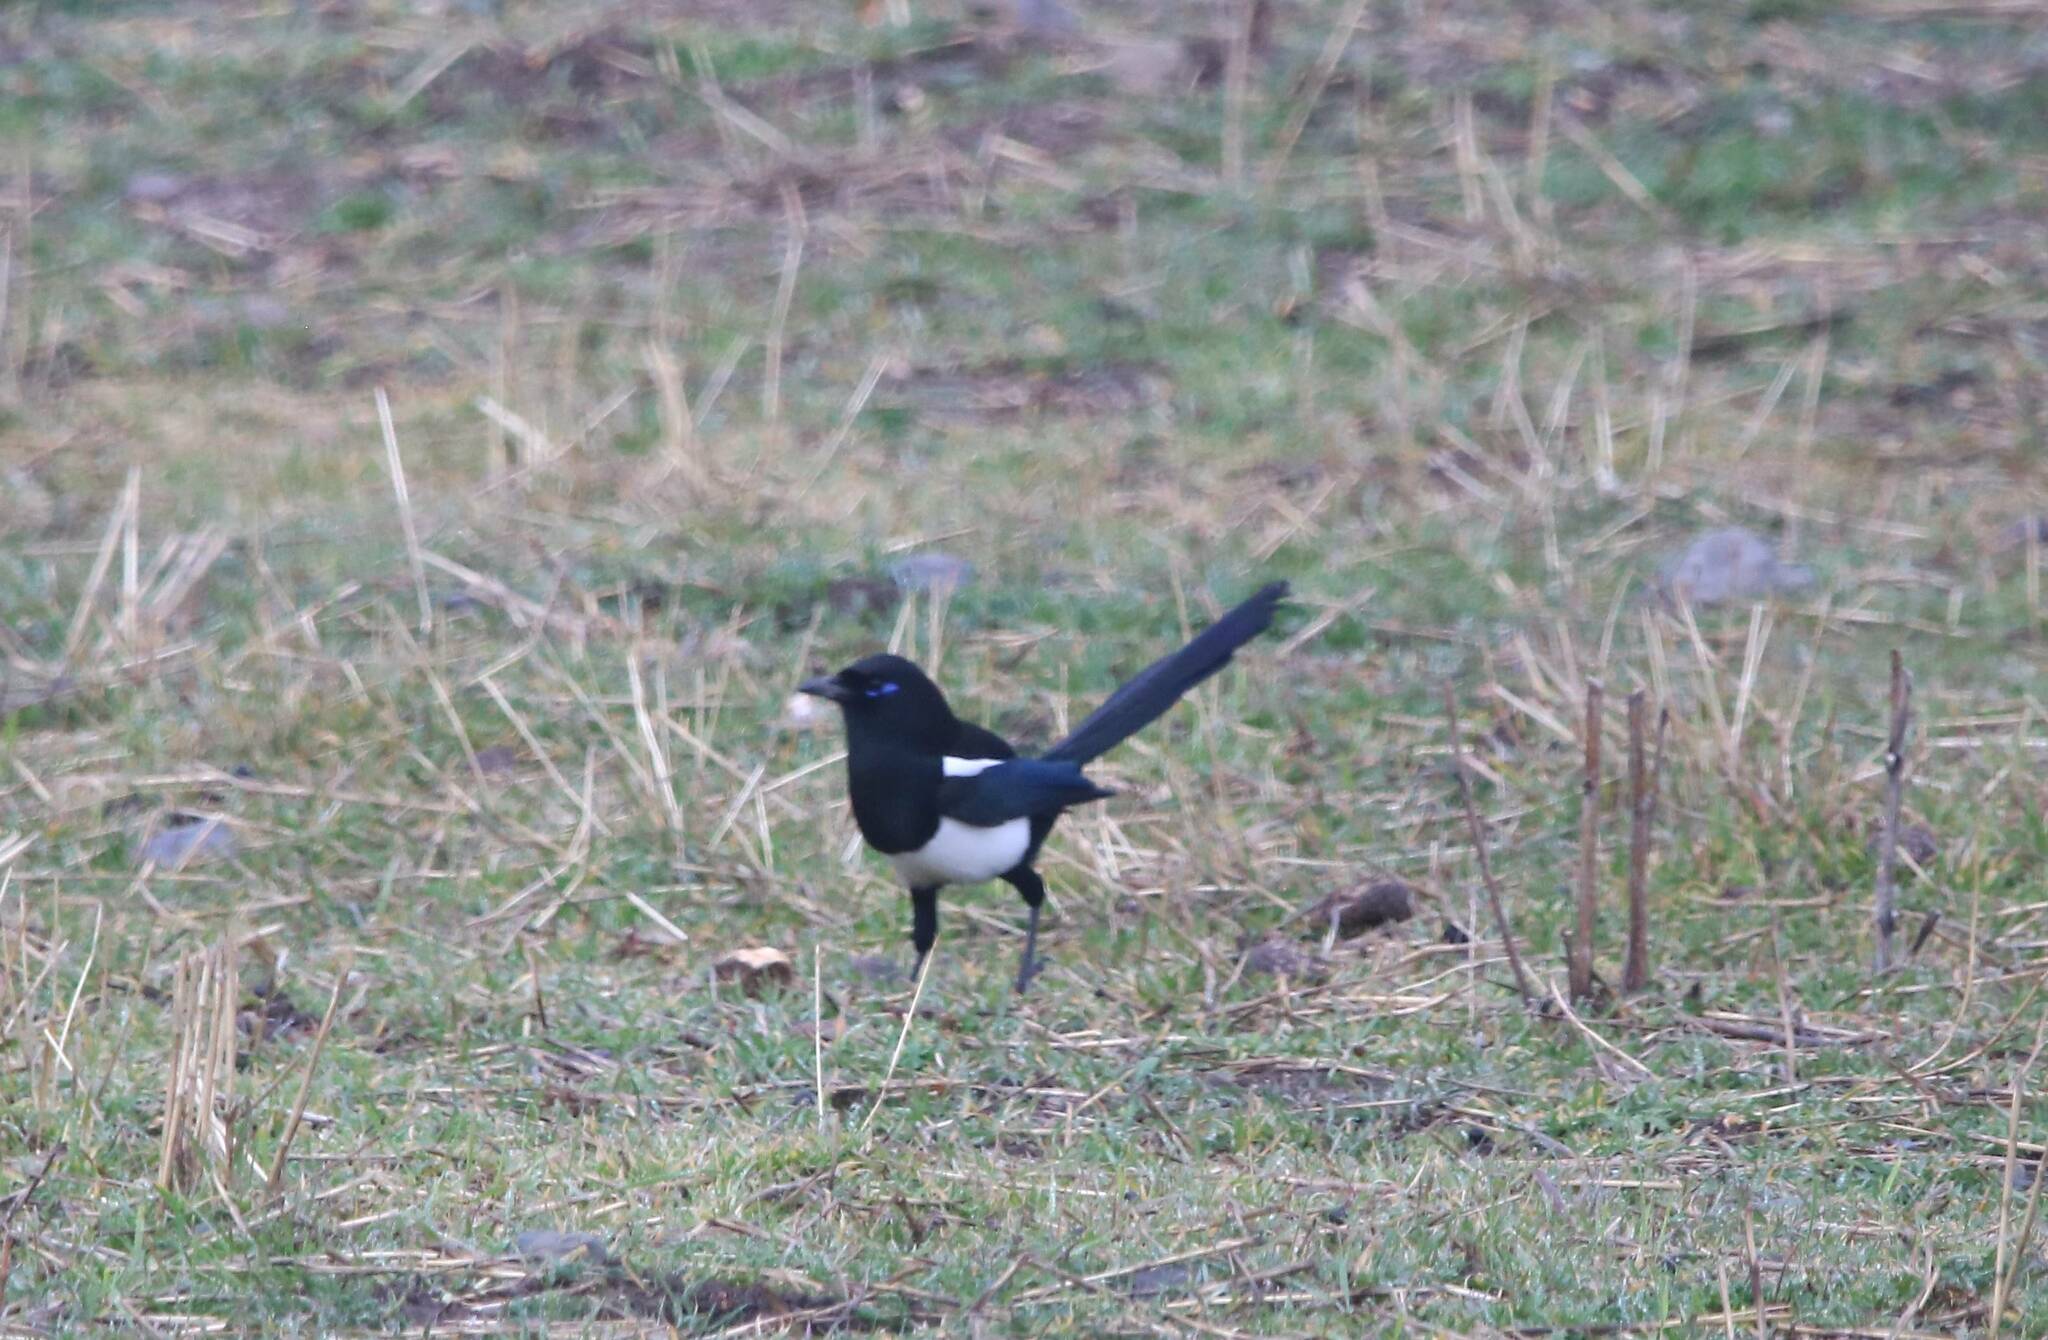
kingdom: Animalia
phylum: Chordata
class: Aves
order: Passeriformes
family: Corvidae
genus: Pica
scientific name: Pica mauritanica
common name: Maghreb magpie
